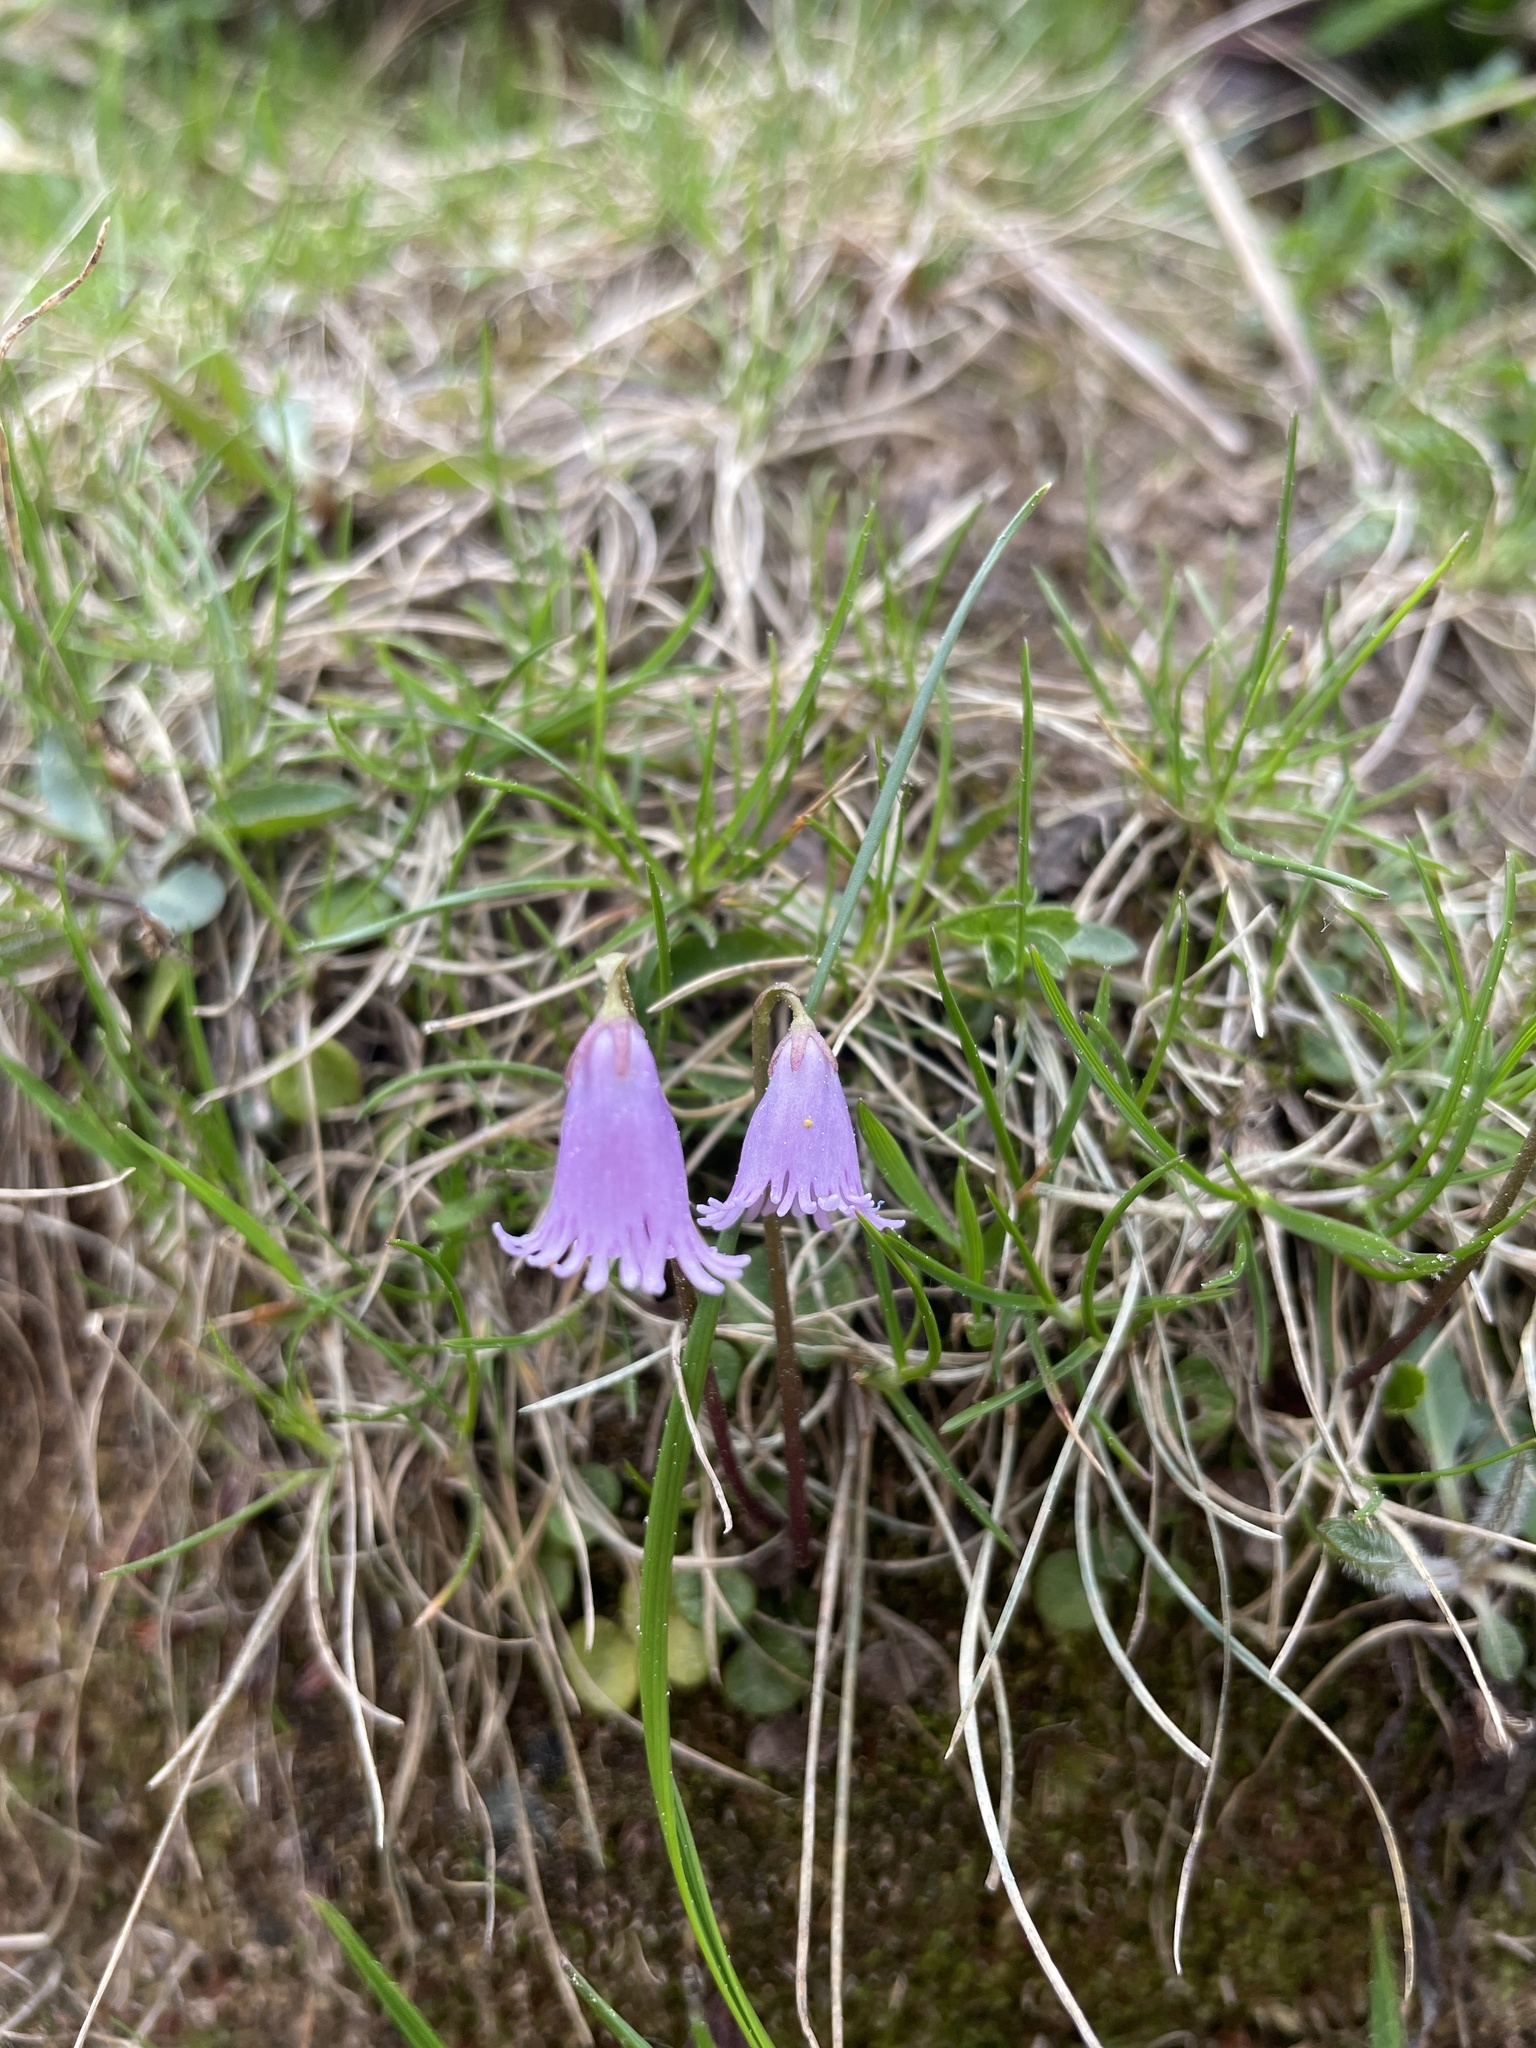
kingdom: Plantae
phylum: Tracheophyta
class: Magnoliopsida
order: Ericales
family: Primulaceae
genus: Soldanella
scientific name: Soldanella pusilla
